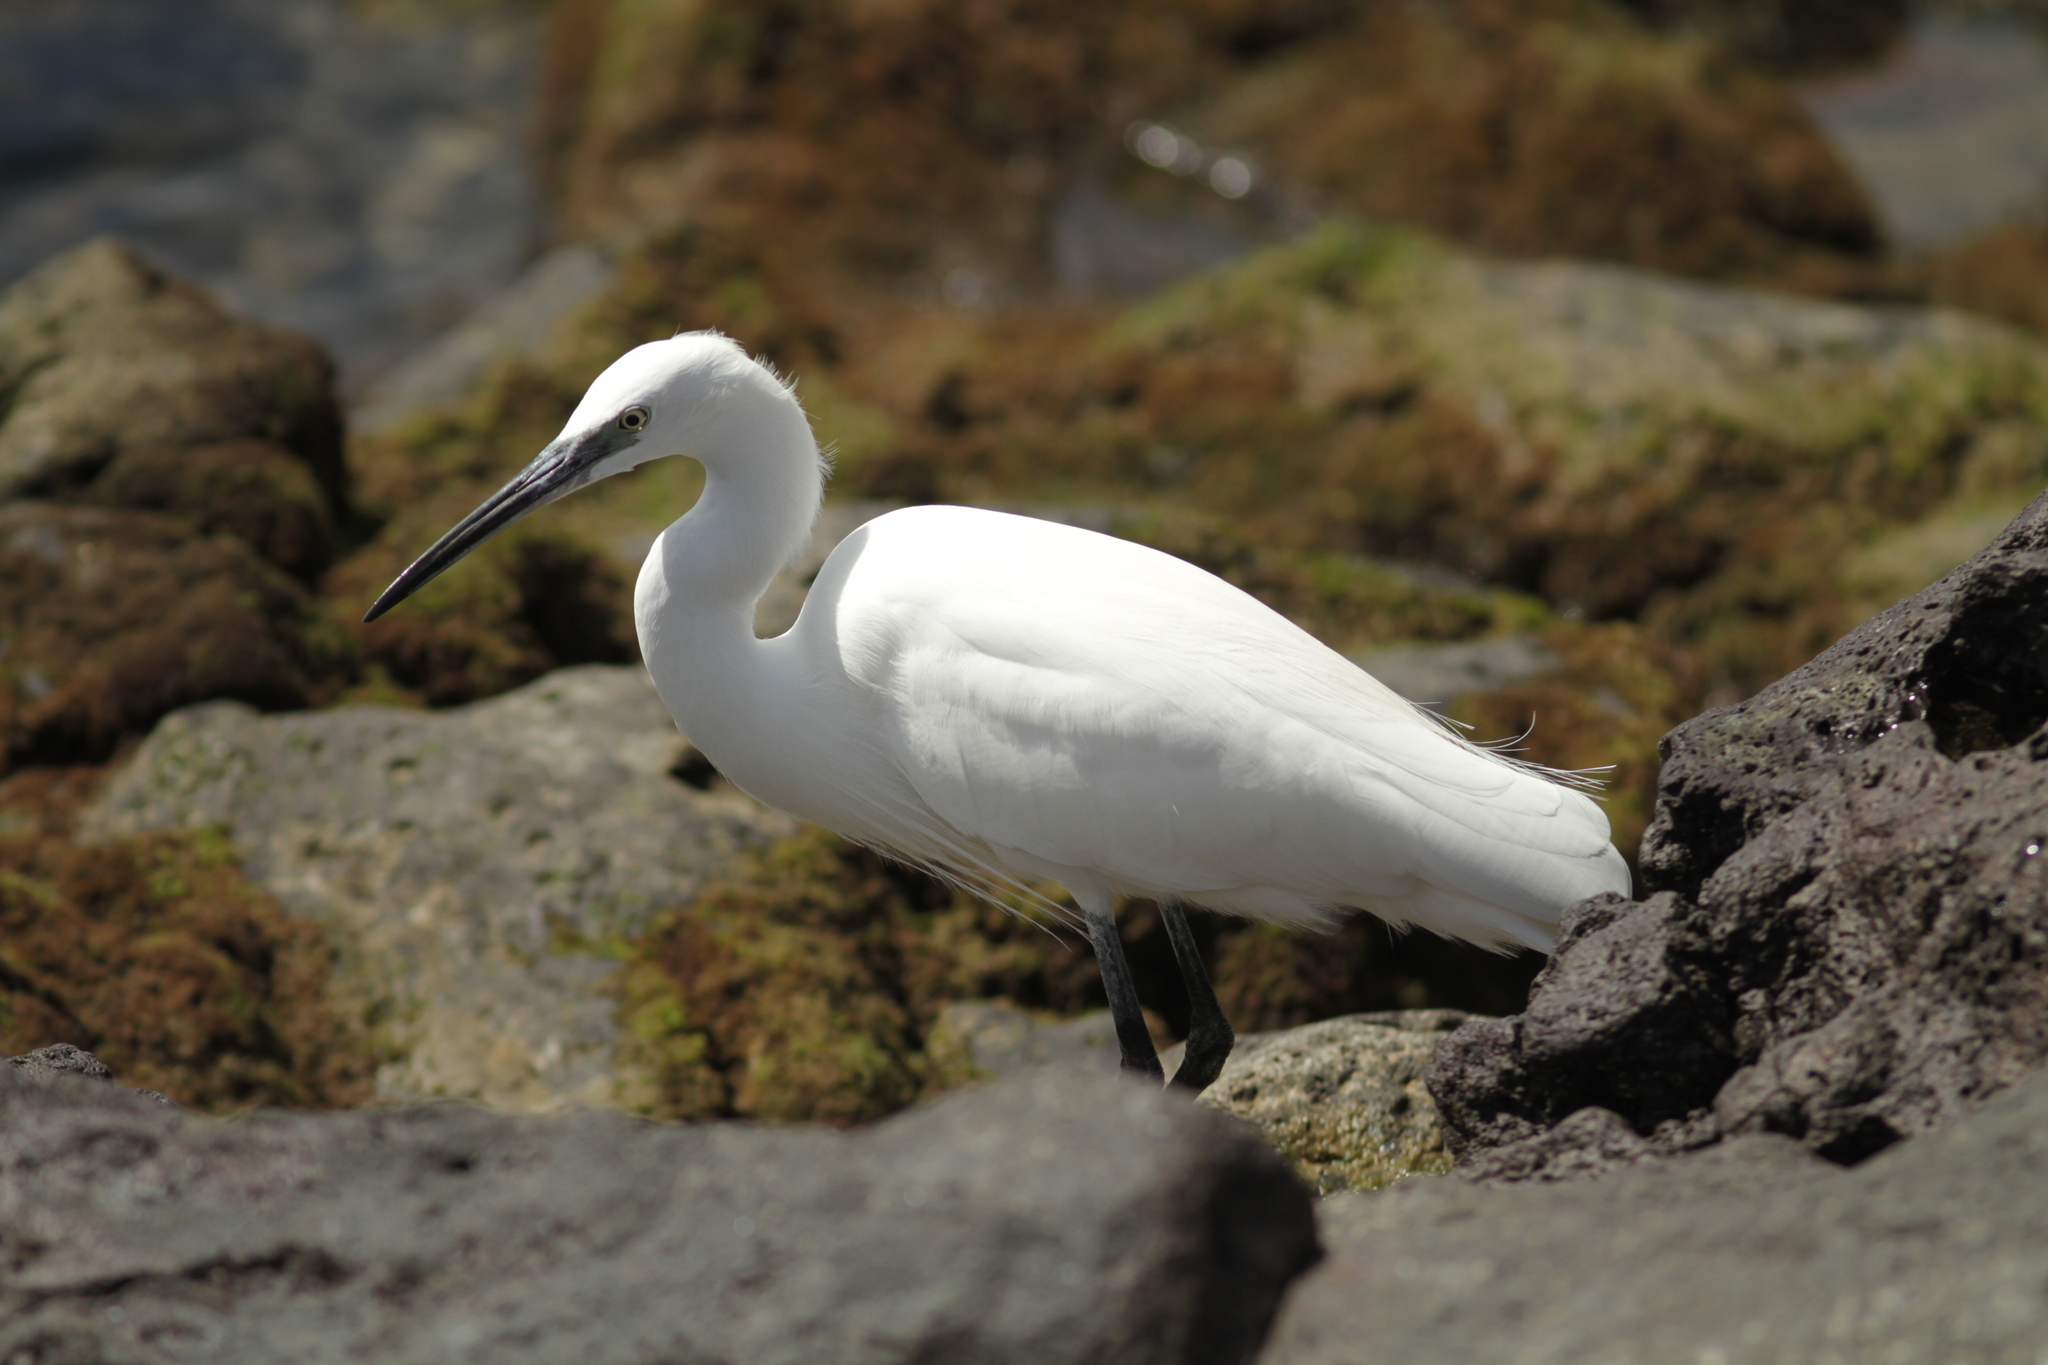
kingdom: Animalia
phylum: Chordata
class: Aves
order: Pelecaniformes
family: Ardeidae
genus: Egretta
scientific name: Egretta garzetta
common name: Little egret
